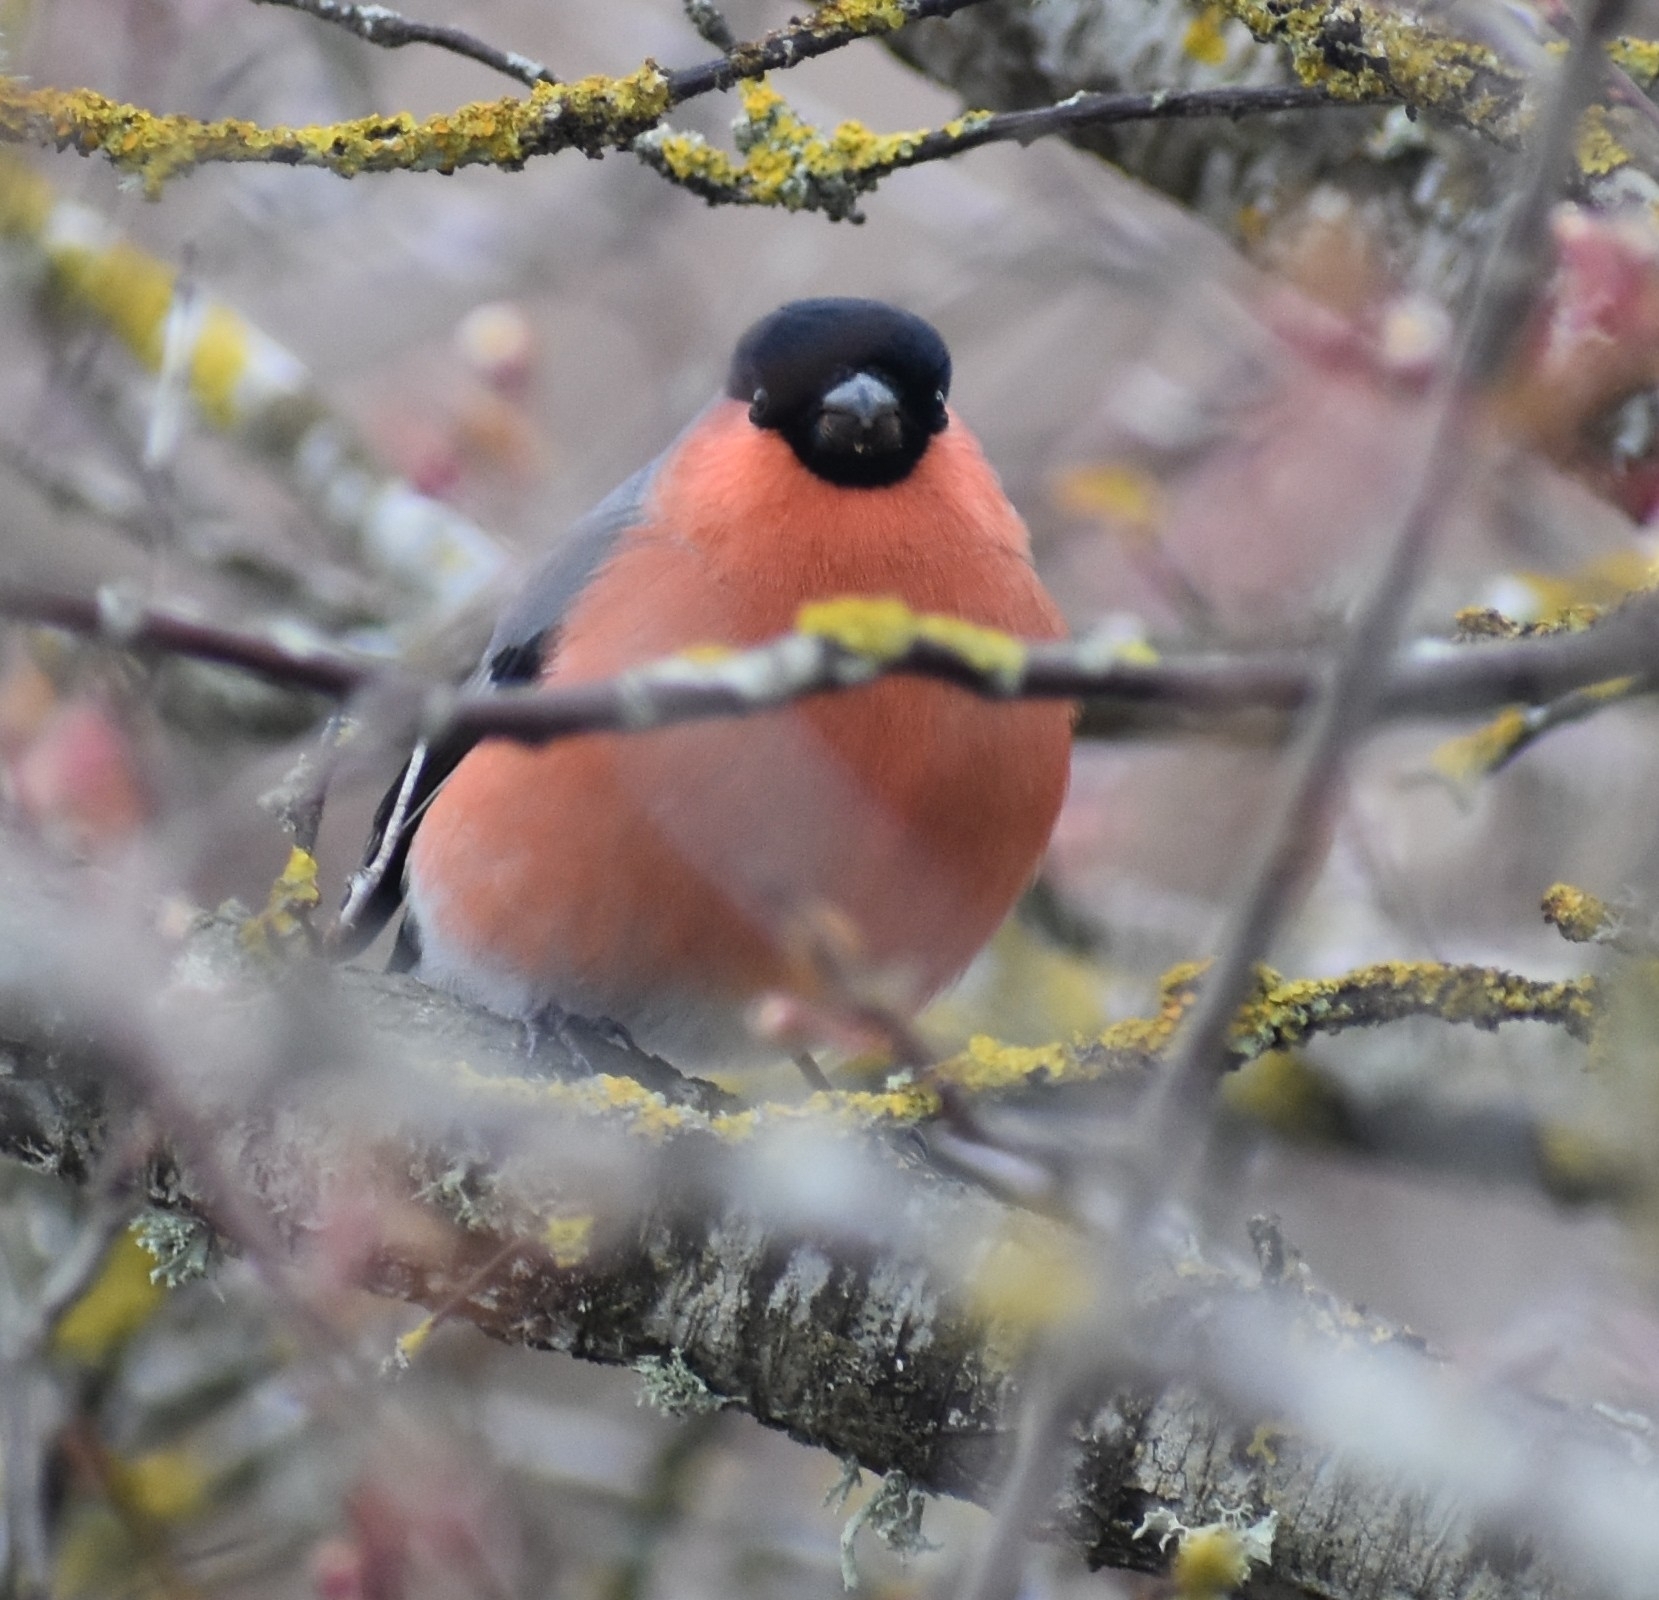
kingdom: Animalia
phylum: Chordata
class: Aves
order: Passeriformes
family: Fringillidae
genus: Pyrrhula
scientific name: Pyrrhula pyrrhula
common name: Eurasian bullfinch
